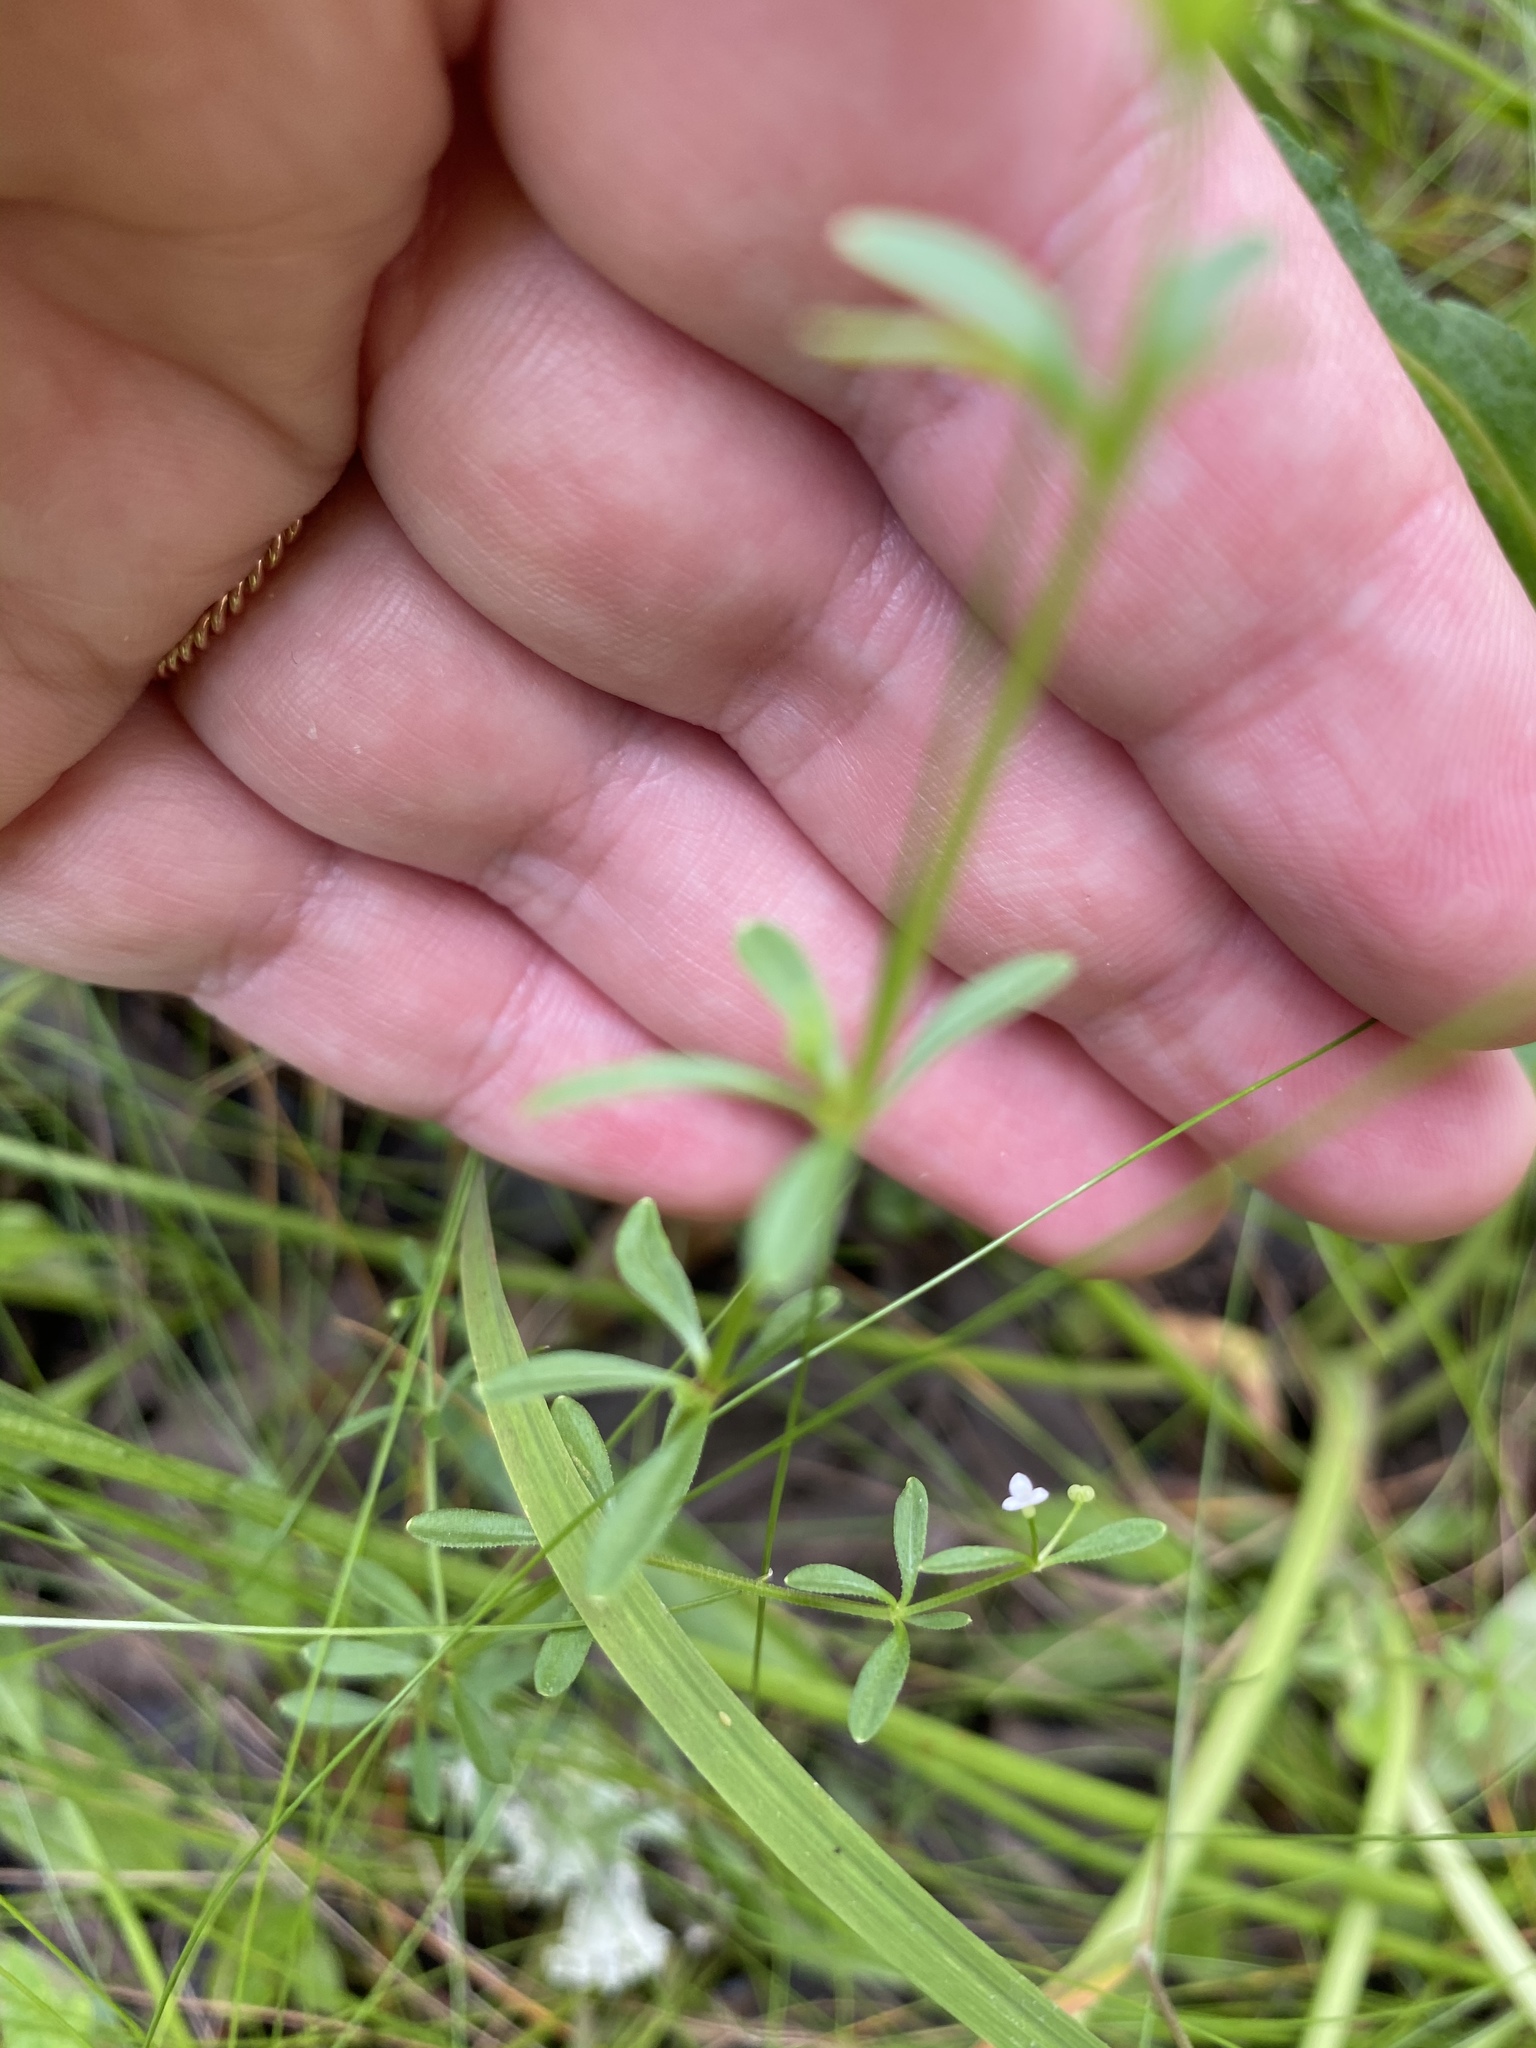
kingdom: Plantae
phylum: Tracheophyta
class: Magnoliopsida
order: Gentianales
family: Rubiaceae
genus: Galium
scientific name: Galium tinctorium
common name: Bedstraw
